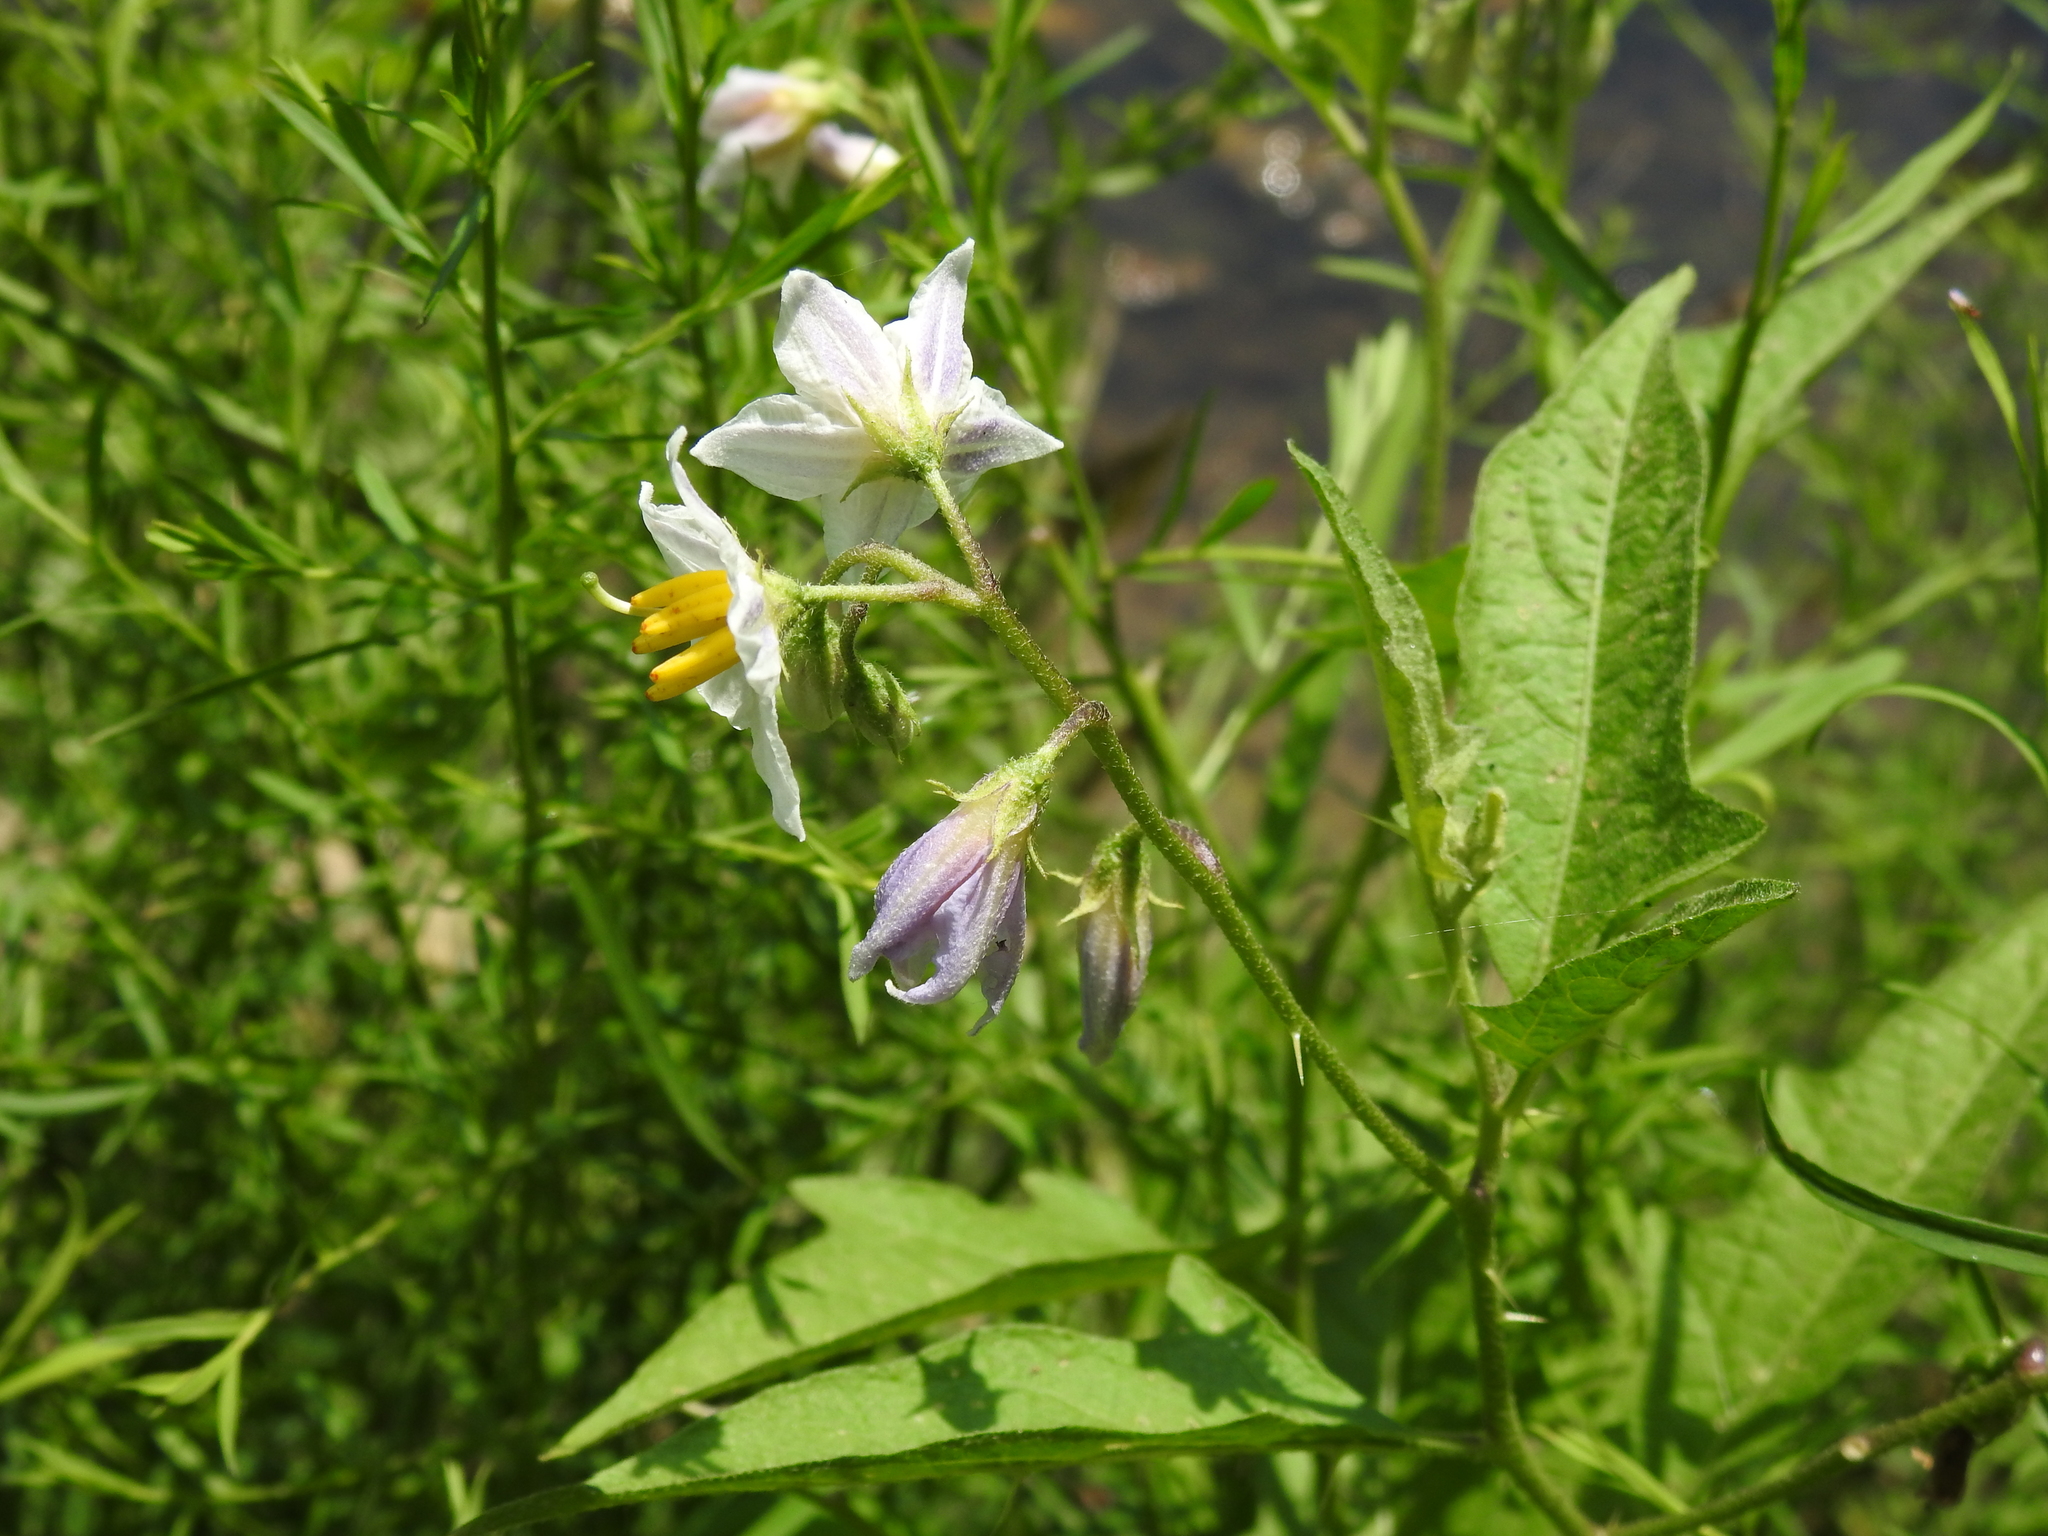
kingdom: Plantae
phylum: Tracheophyta
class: Magnoliopsida
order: Solanales
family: Solanaceae
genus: Solanum
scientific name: Solanum carolinense
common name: Horse-nettle
